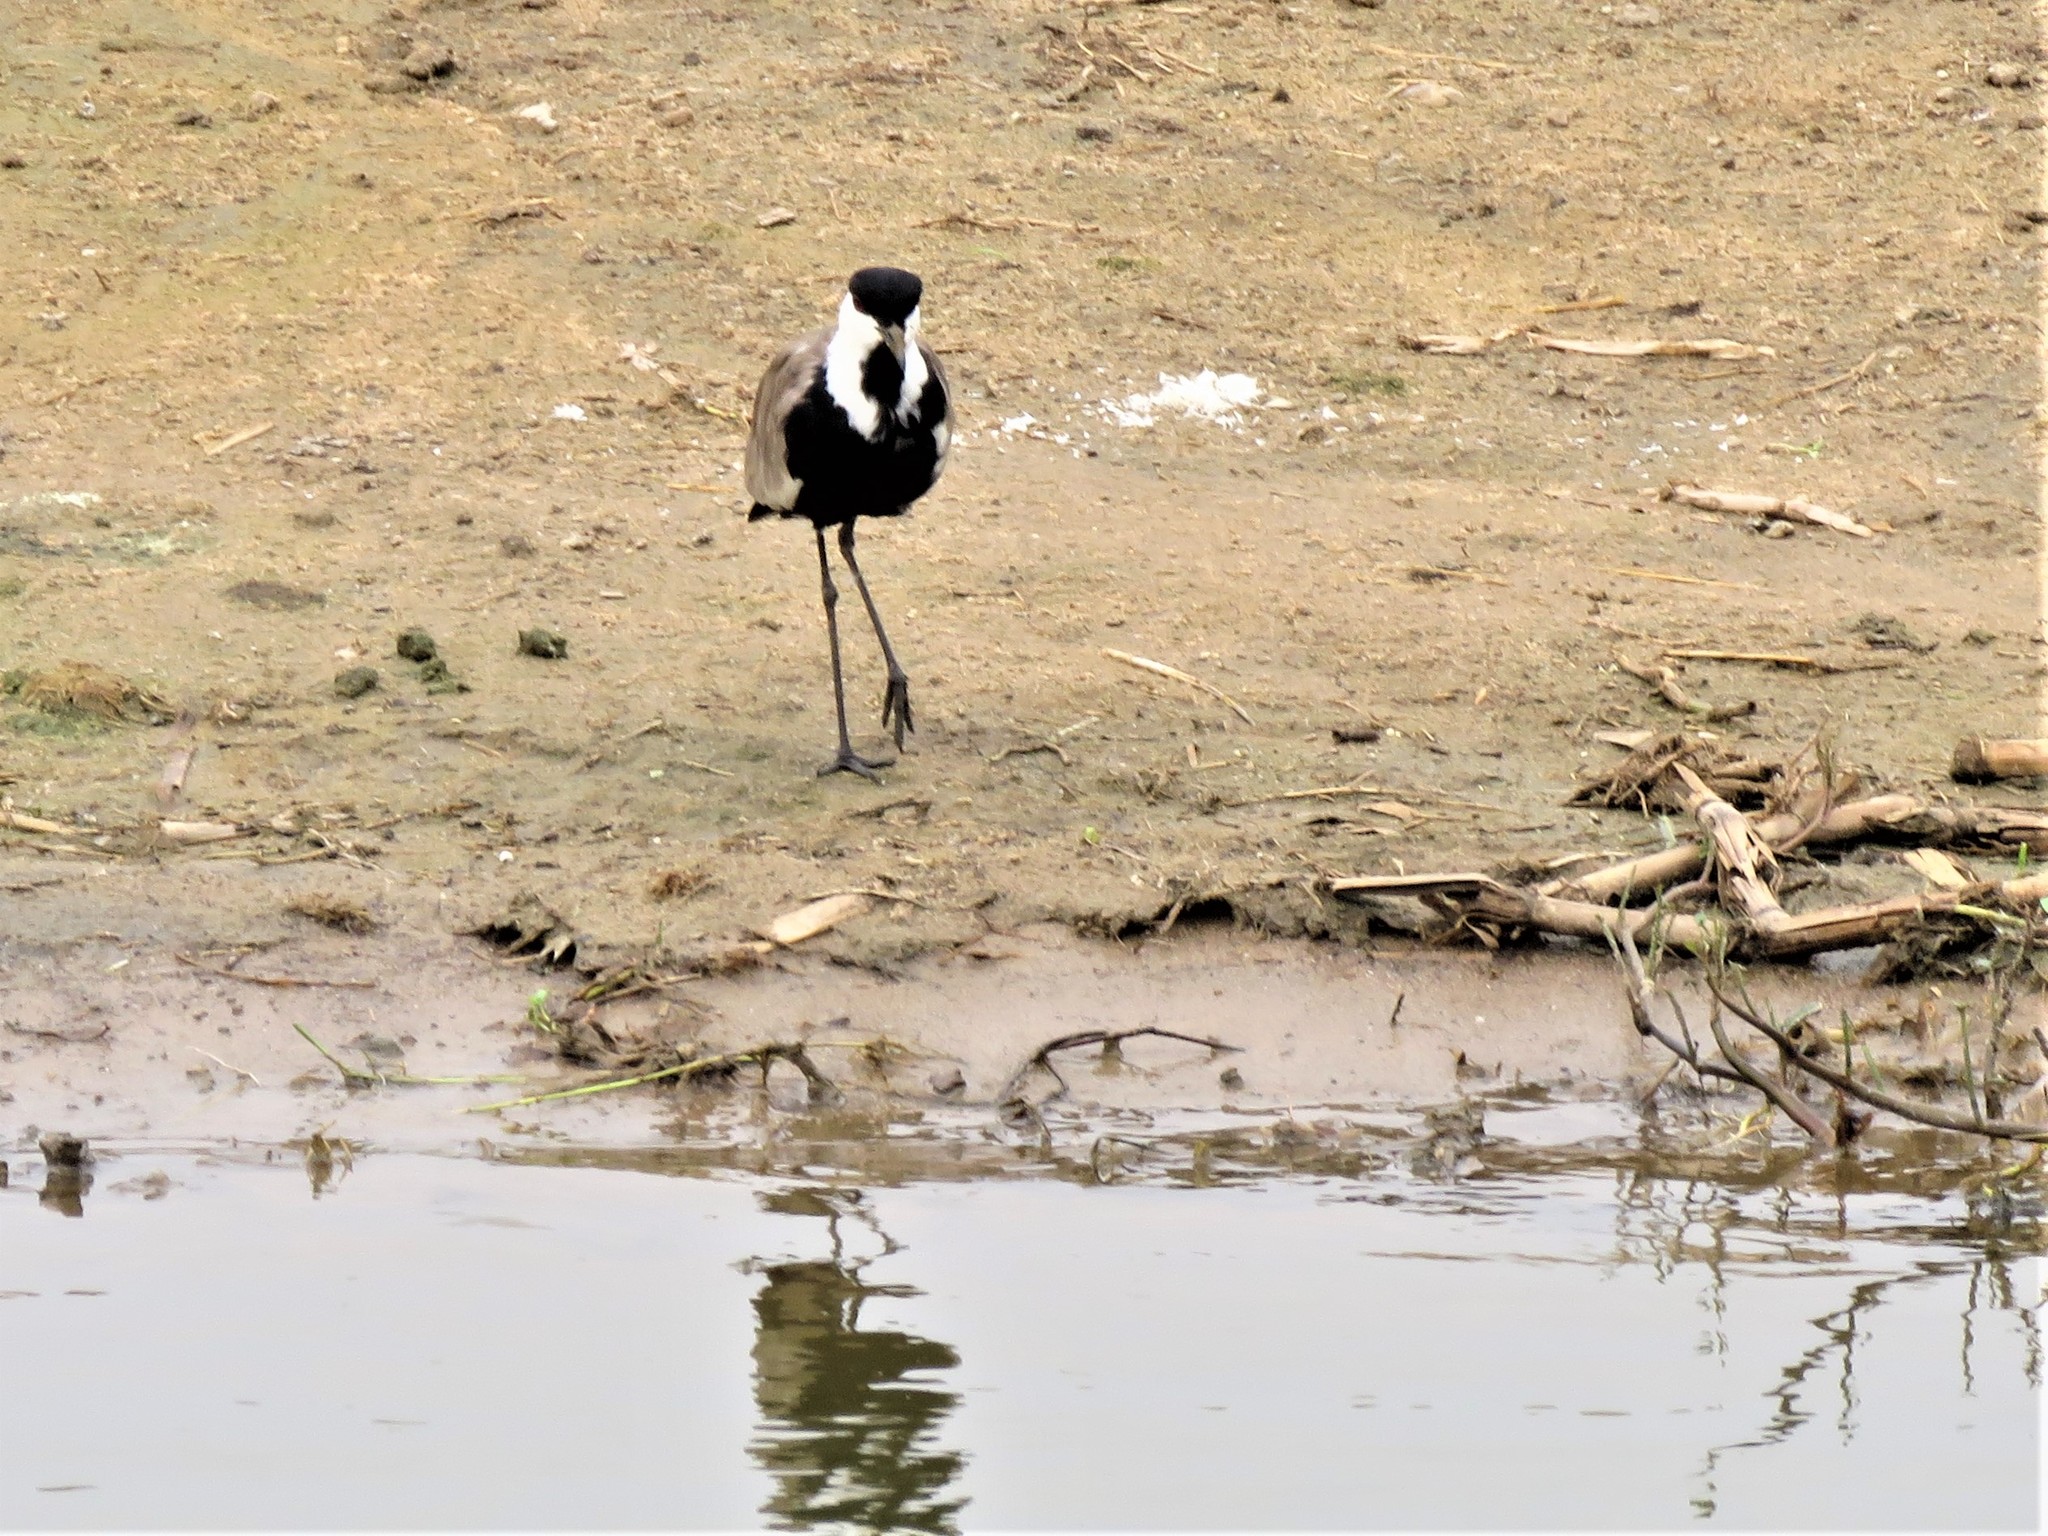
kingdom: Animalia
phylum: Chordata
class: Aves
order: Charadriiformes
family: Charadriidae
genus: Vanellus
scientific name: Vanellus spinosus
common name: Spur-winged lapwing
